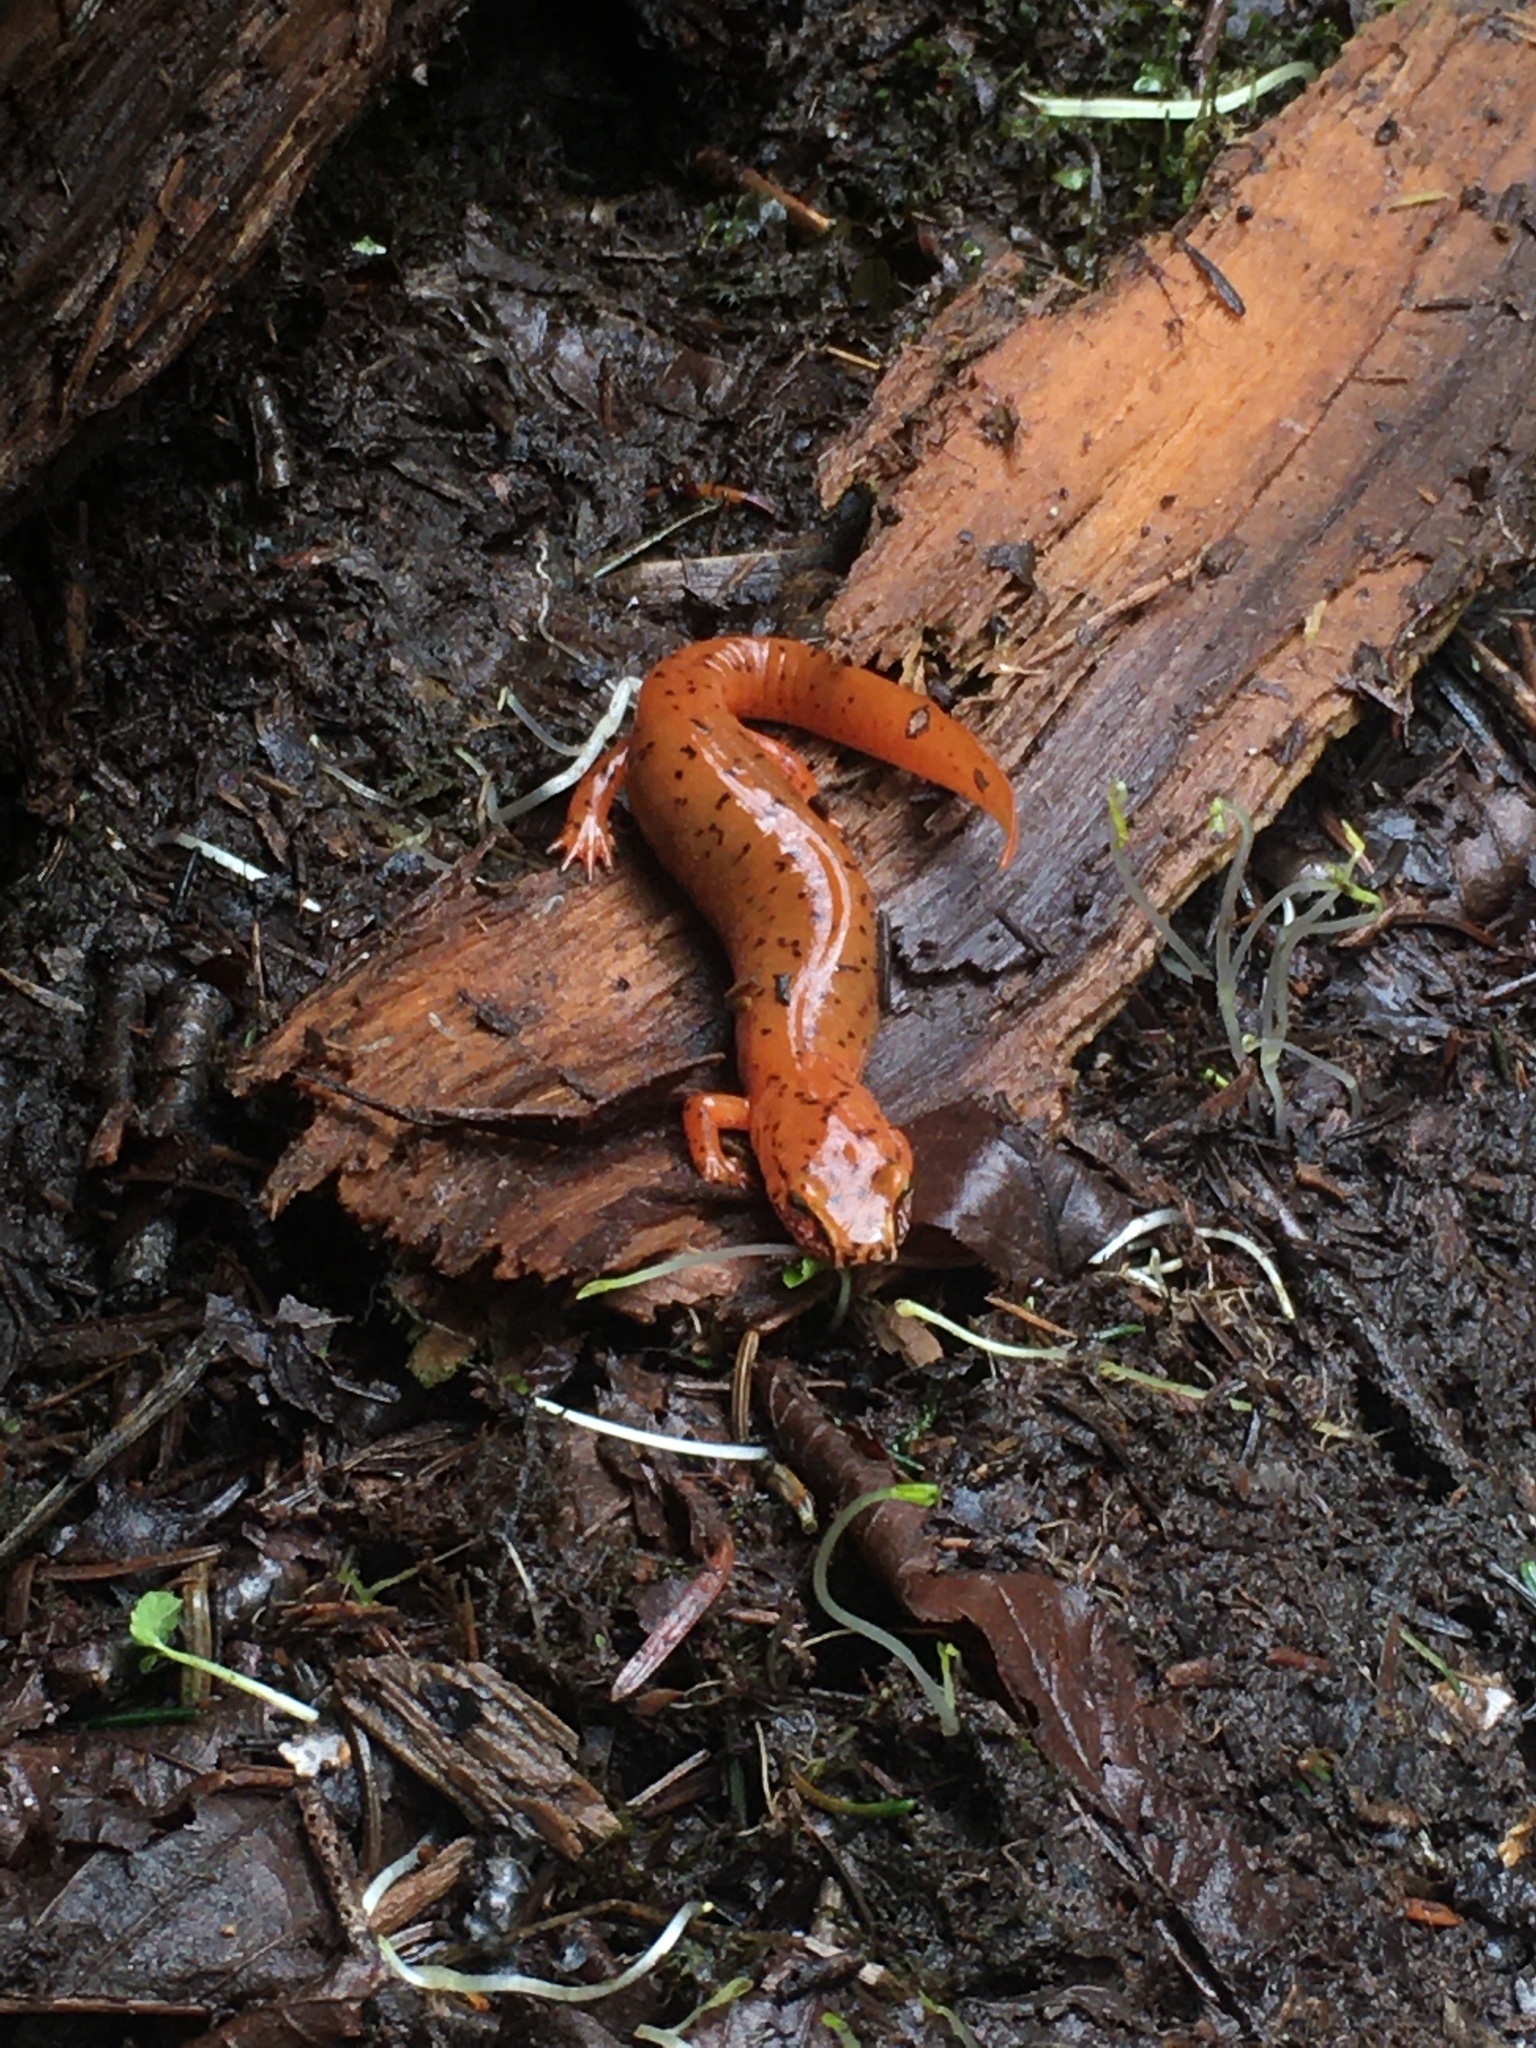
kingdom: Animalia
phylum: Chordata
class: Amphibia
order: Caudata
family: Plethodontidae
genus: Gyrinophilus
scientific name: Gyrinophilus porphyriticus
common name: Spring salamander
